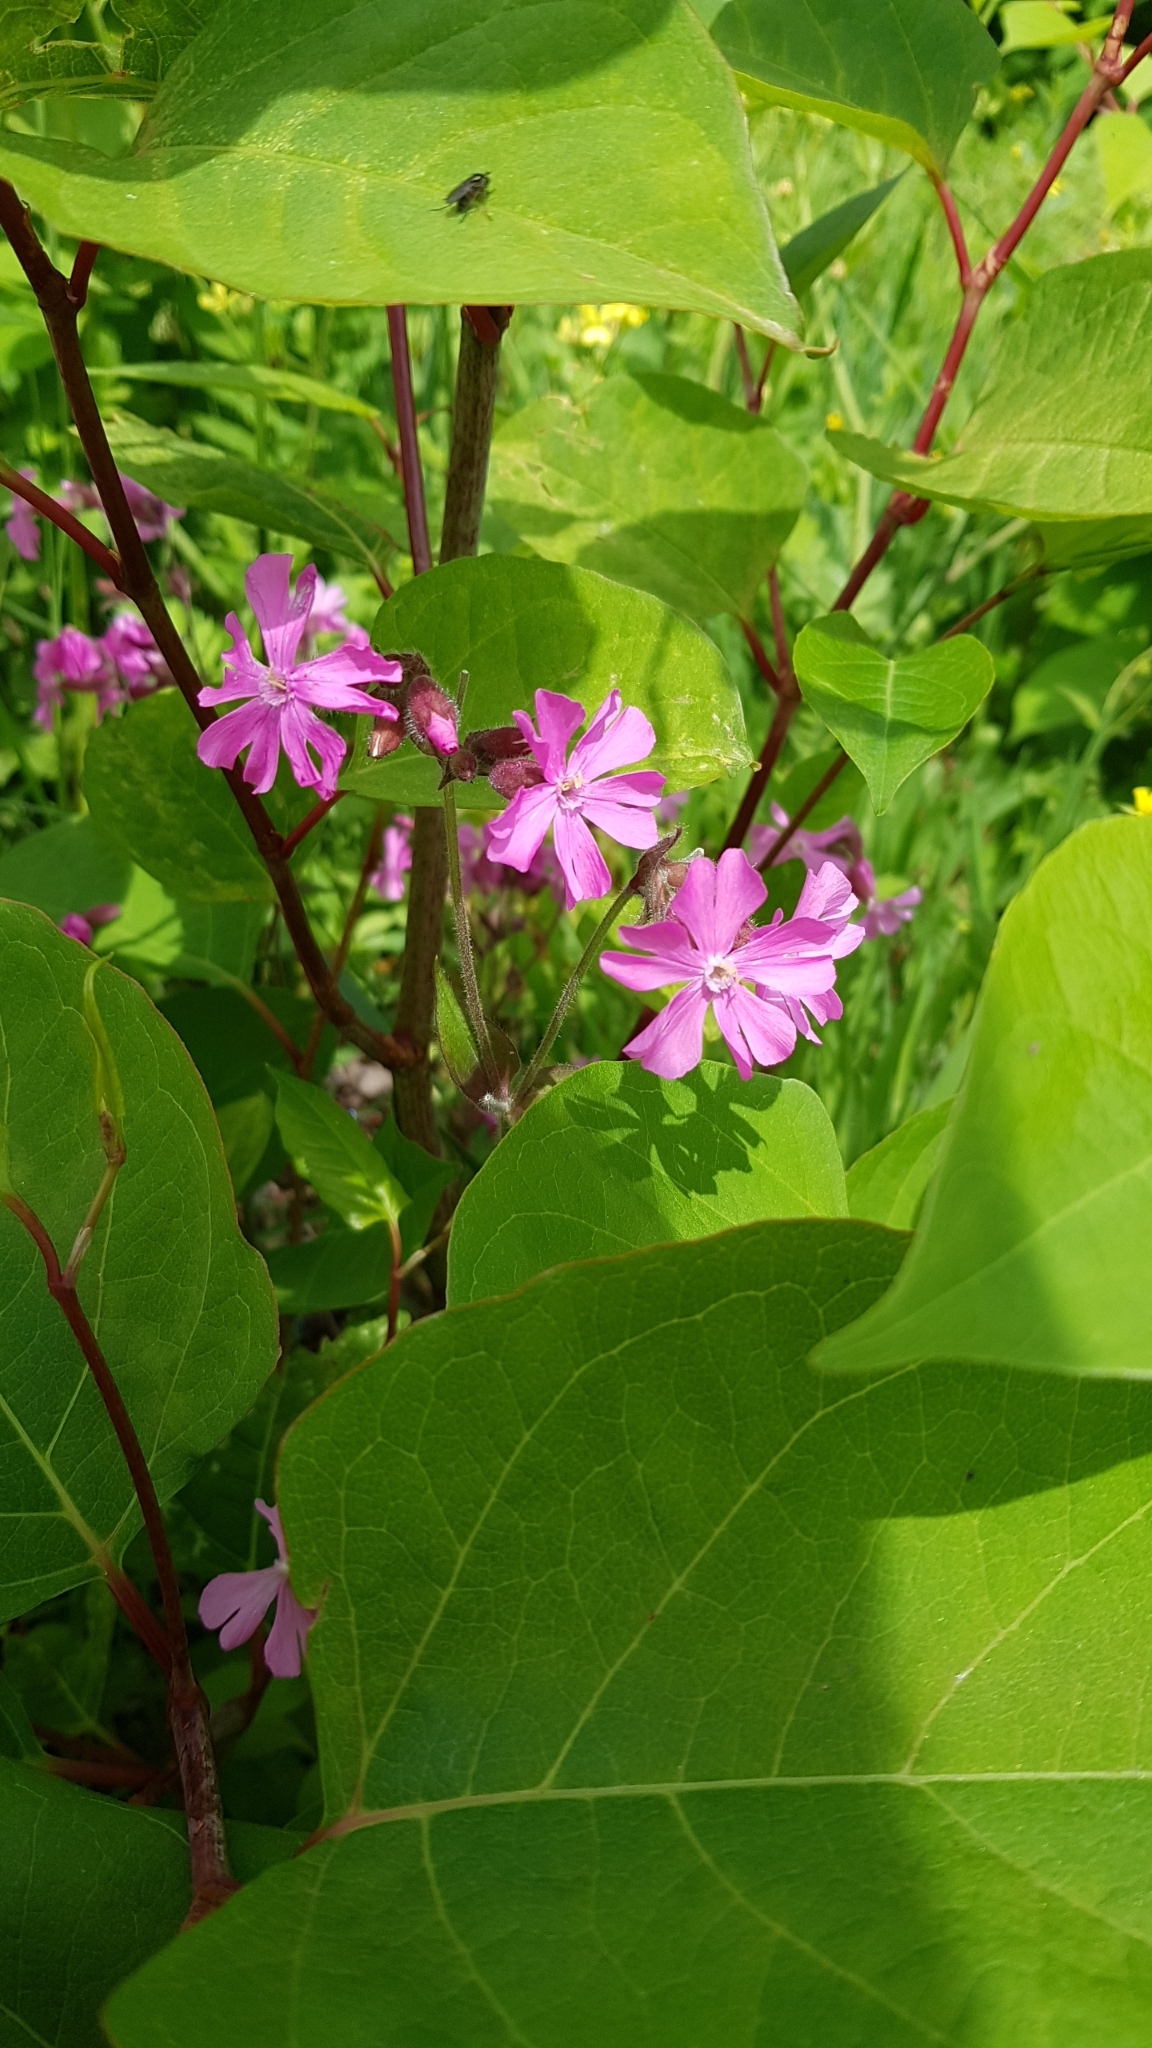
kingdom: Plantae
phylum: Tracheophyta
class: Magnoliopsida
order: Caryophyllales
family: Caryophyllaceae
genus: Silene
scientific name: Silene dioica
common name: Red campion
